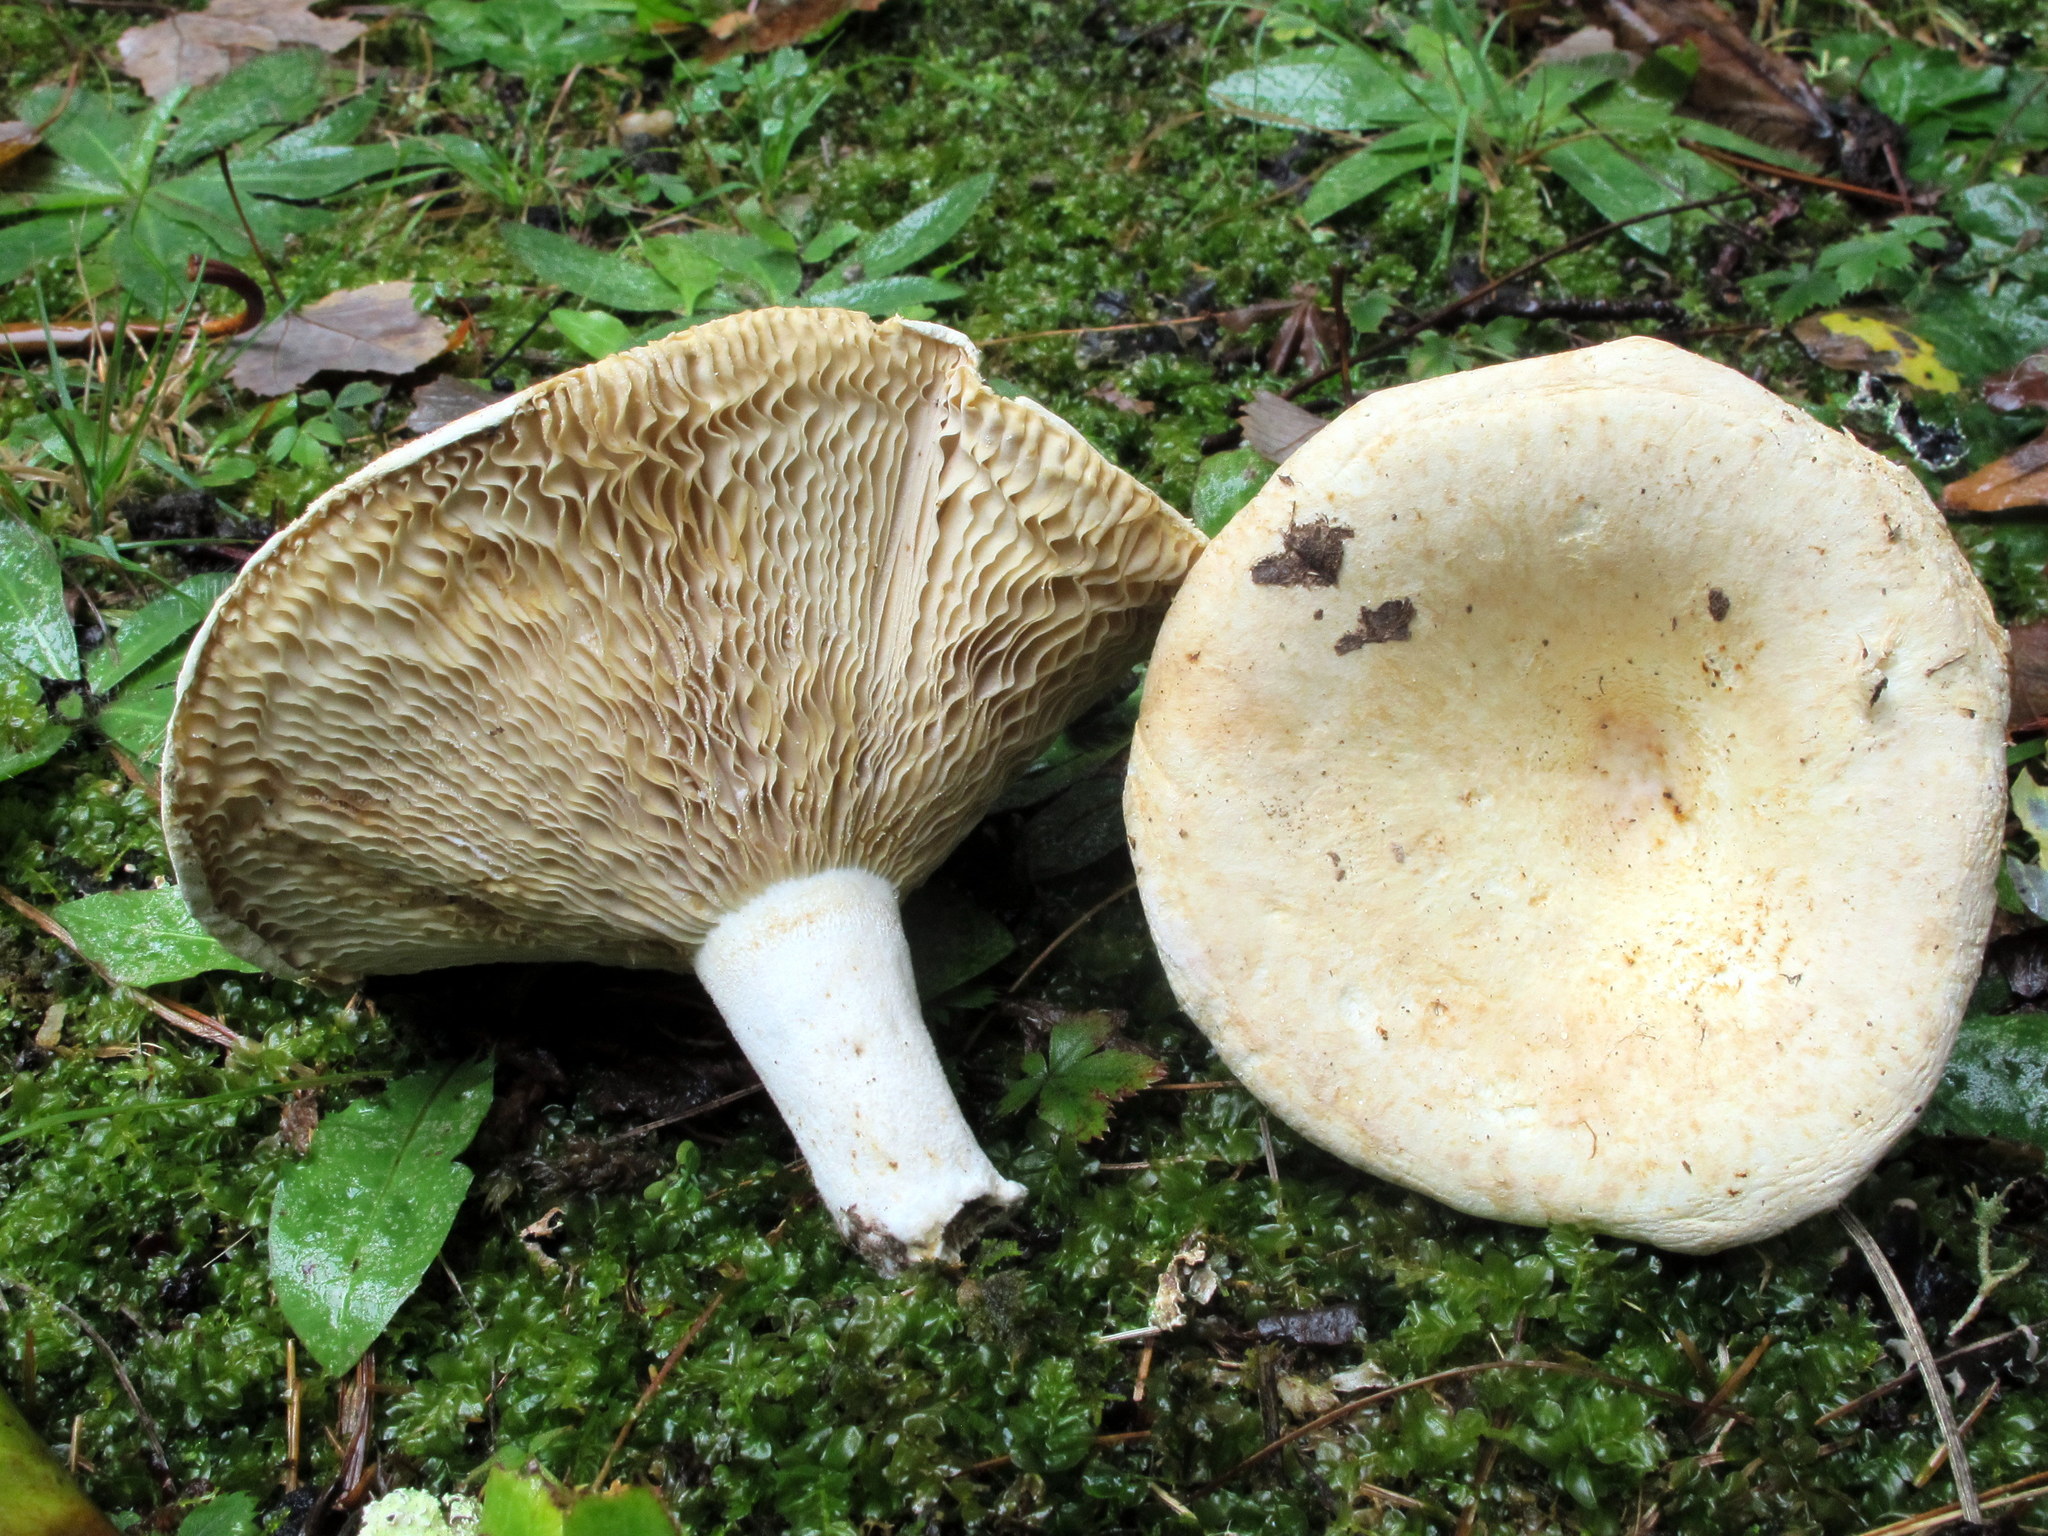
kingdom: Fungi
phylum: Basidiomycota
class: Agaricomycetes
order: Russulales
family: Russulaceae
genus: Lactarius
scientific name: Lactarius zonarius
